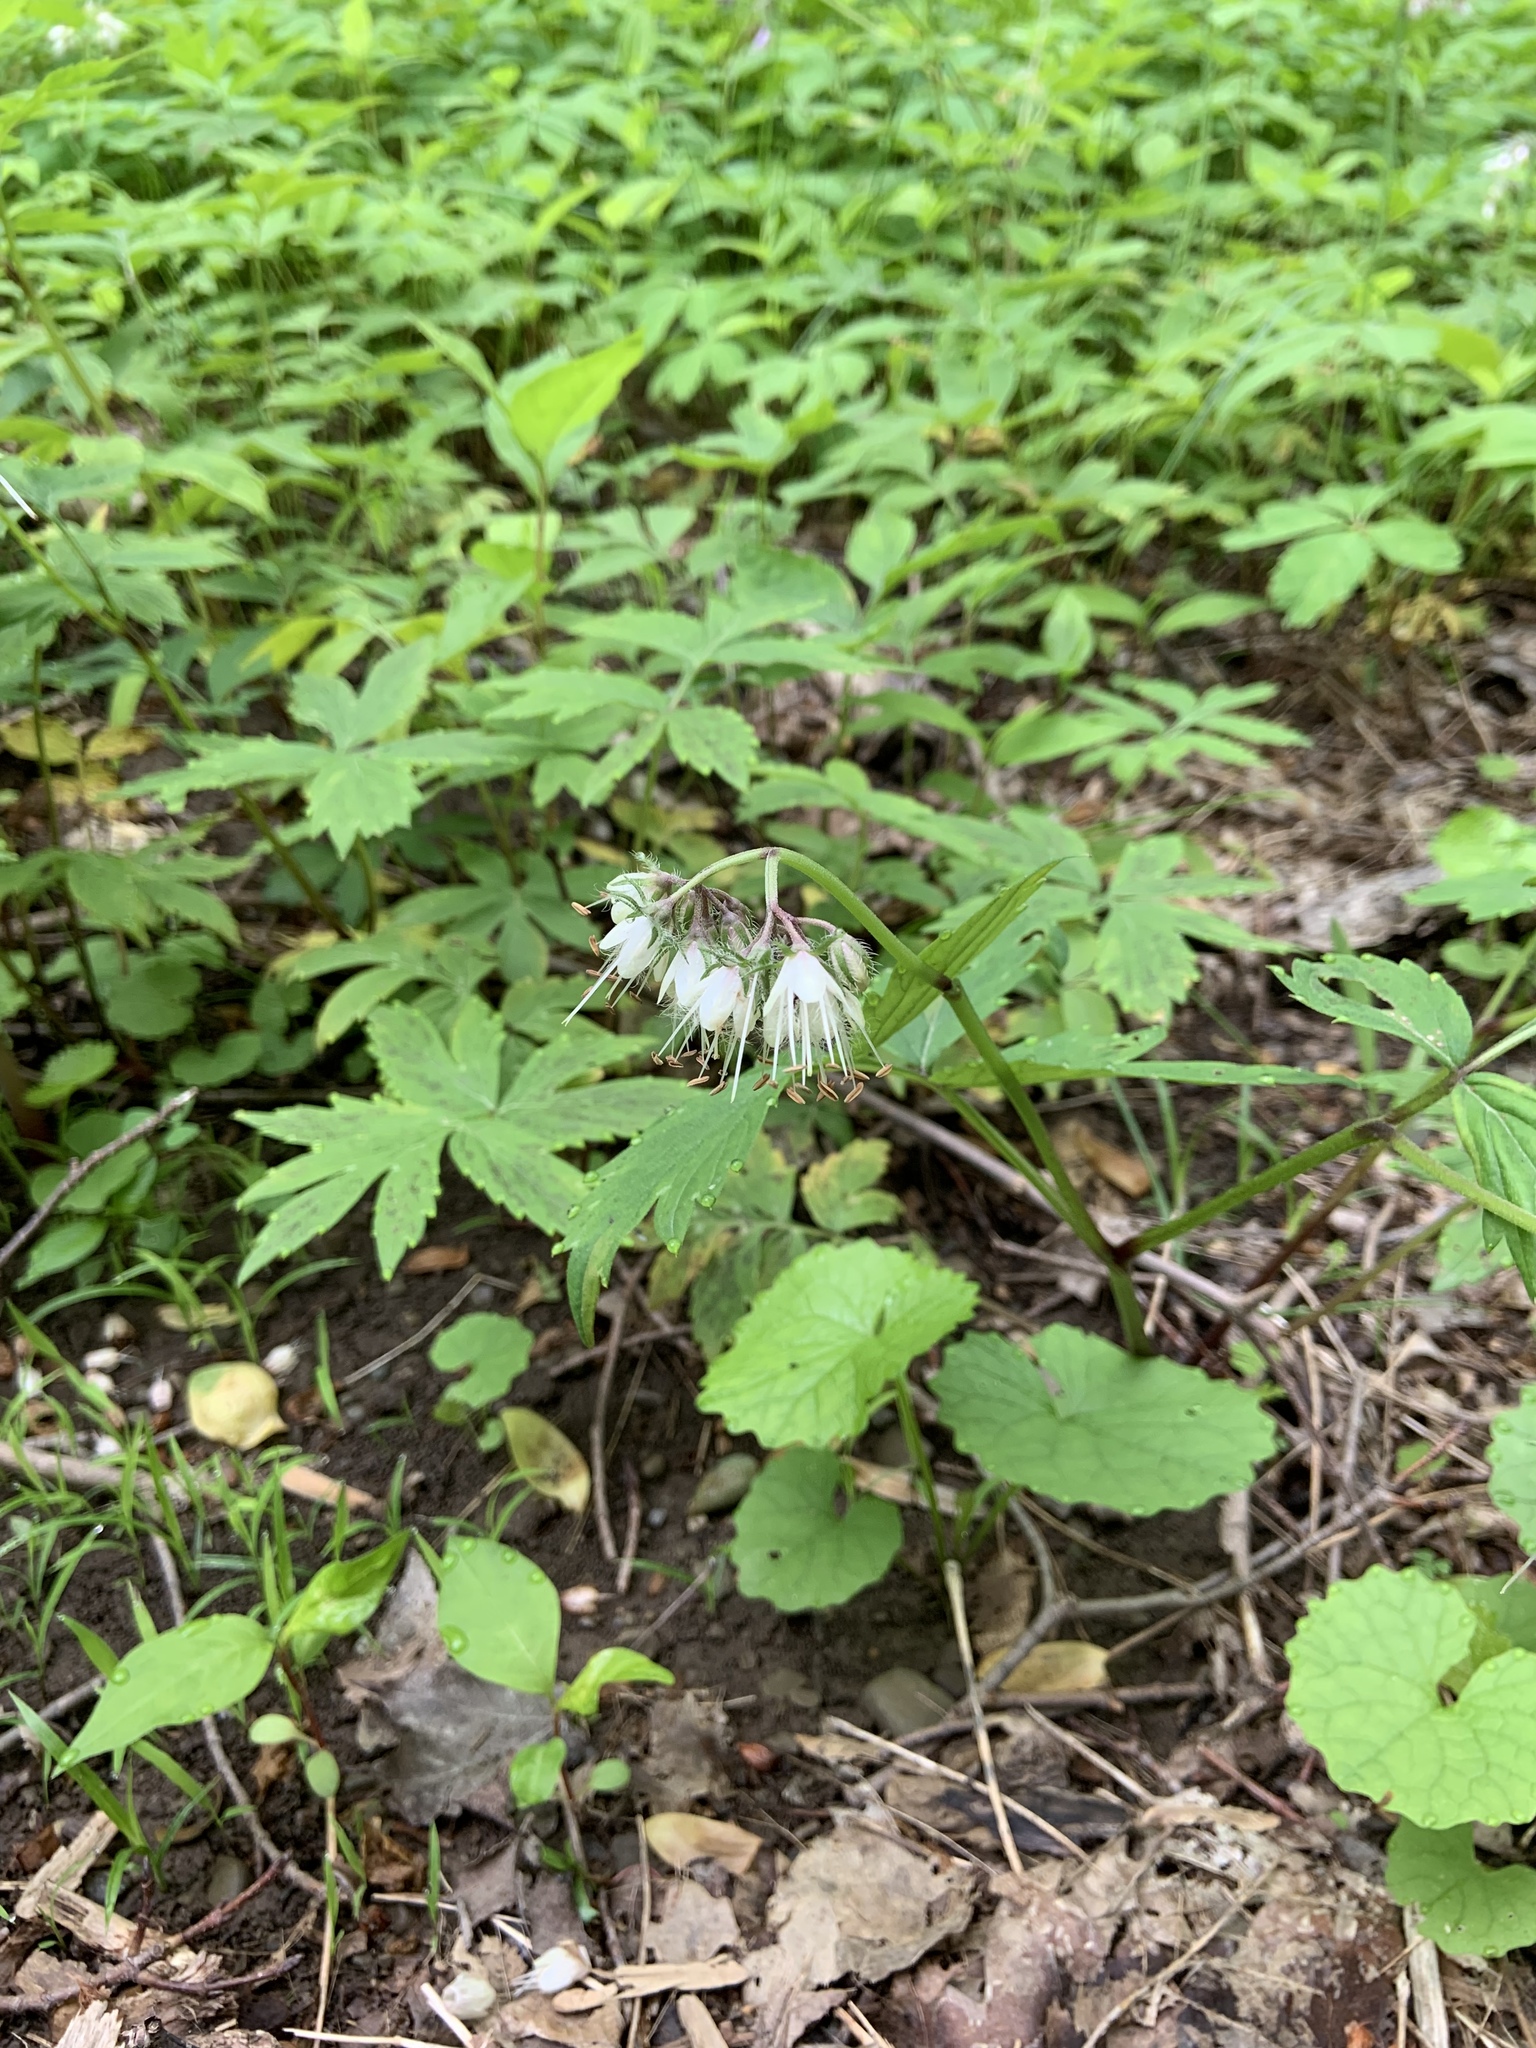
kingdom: Plantae
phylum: Tracheophyta
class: Magnoliopsida
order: Boraginales
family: Hydrophyllaceae
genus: Hydrophyllum
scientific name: Hydrophyllum virginianum
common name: Virginia waterleaf
